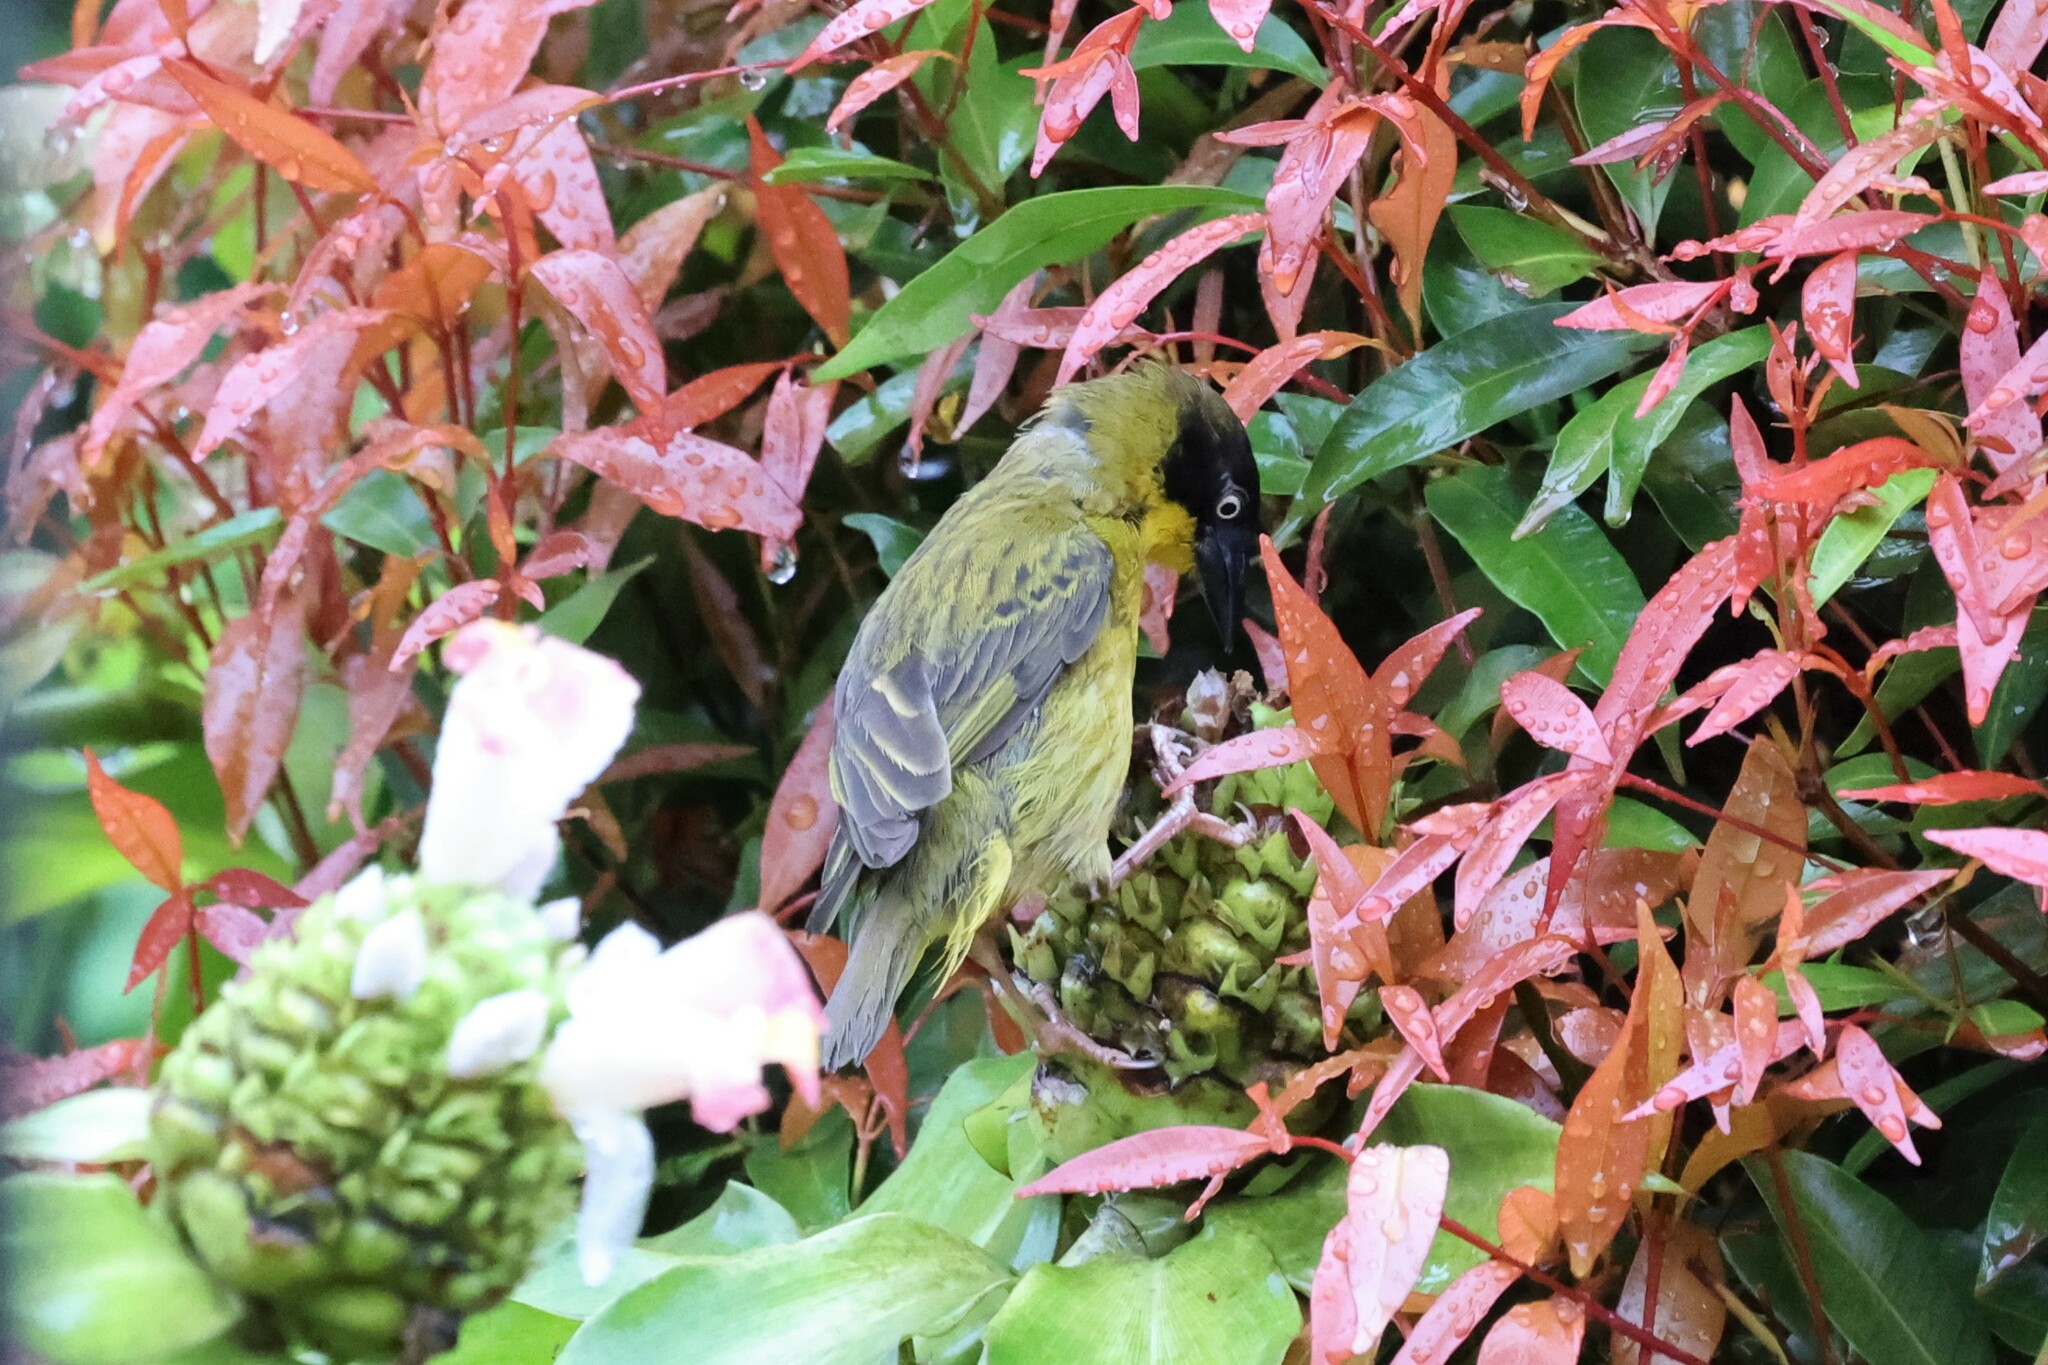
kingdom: Animalia
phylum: Chordata
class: Aves
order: Passeriformes
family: Ploceidae
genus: Ploceus
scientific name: Ploceus baglafecht
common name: Baglafecht weaver
